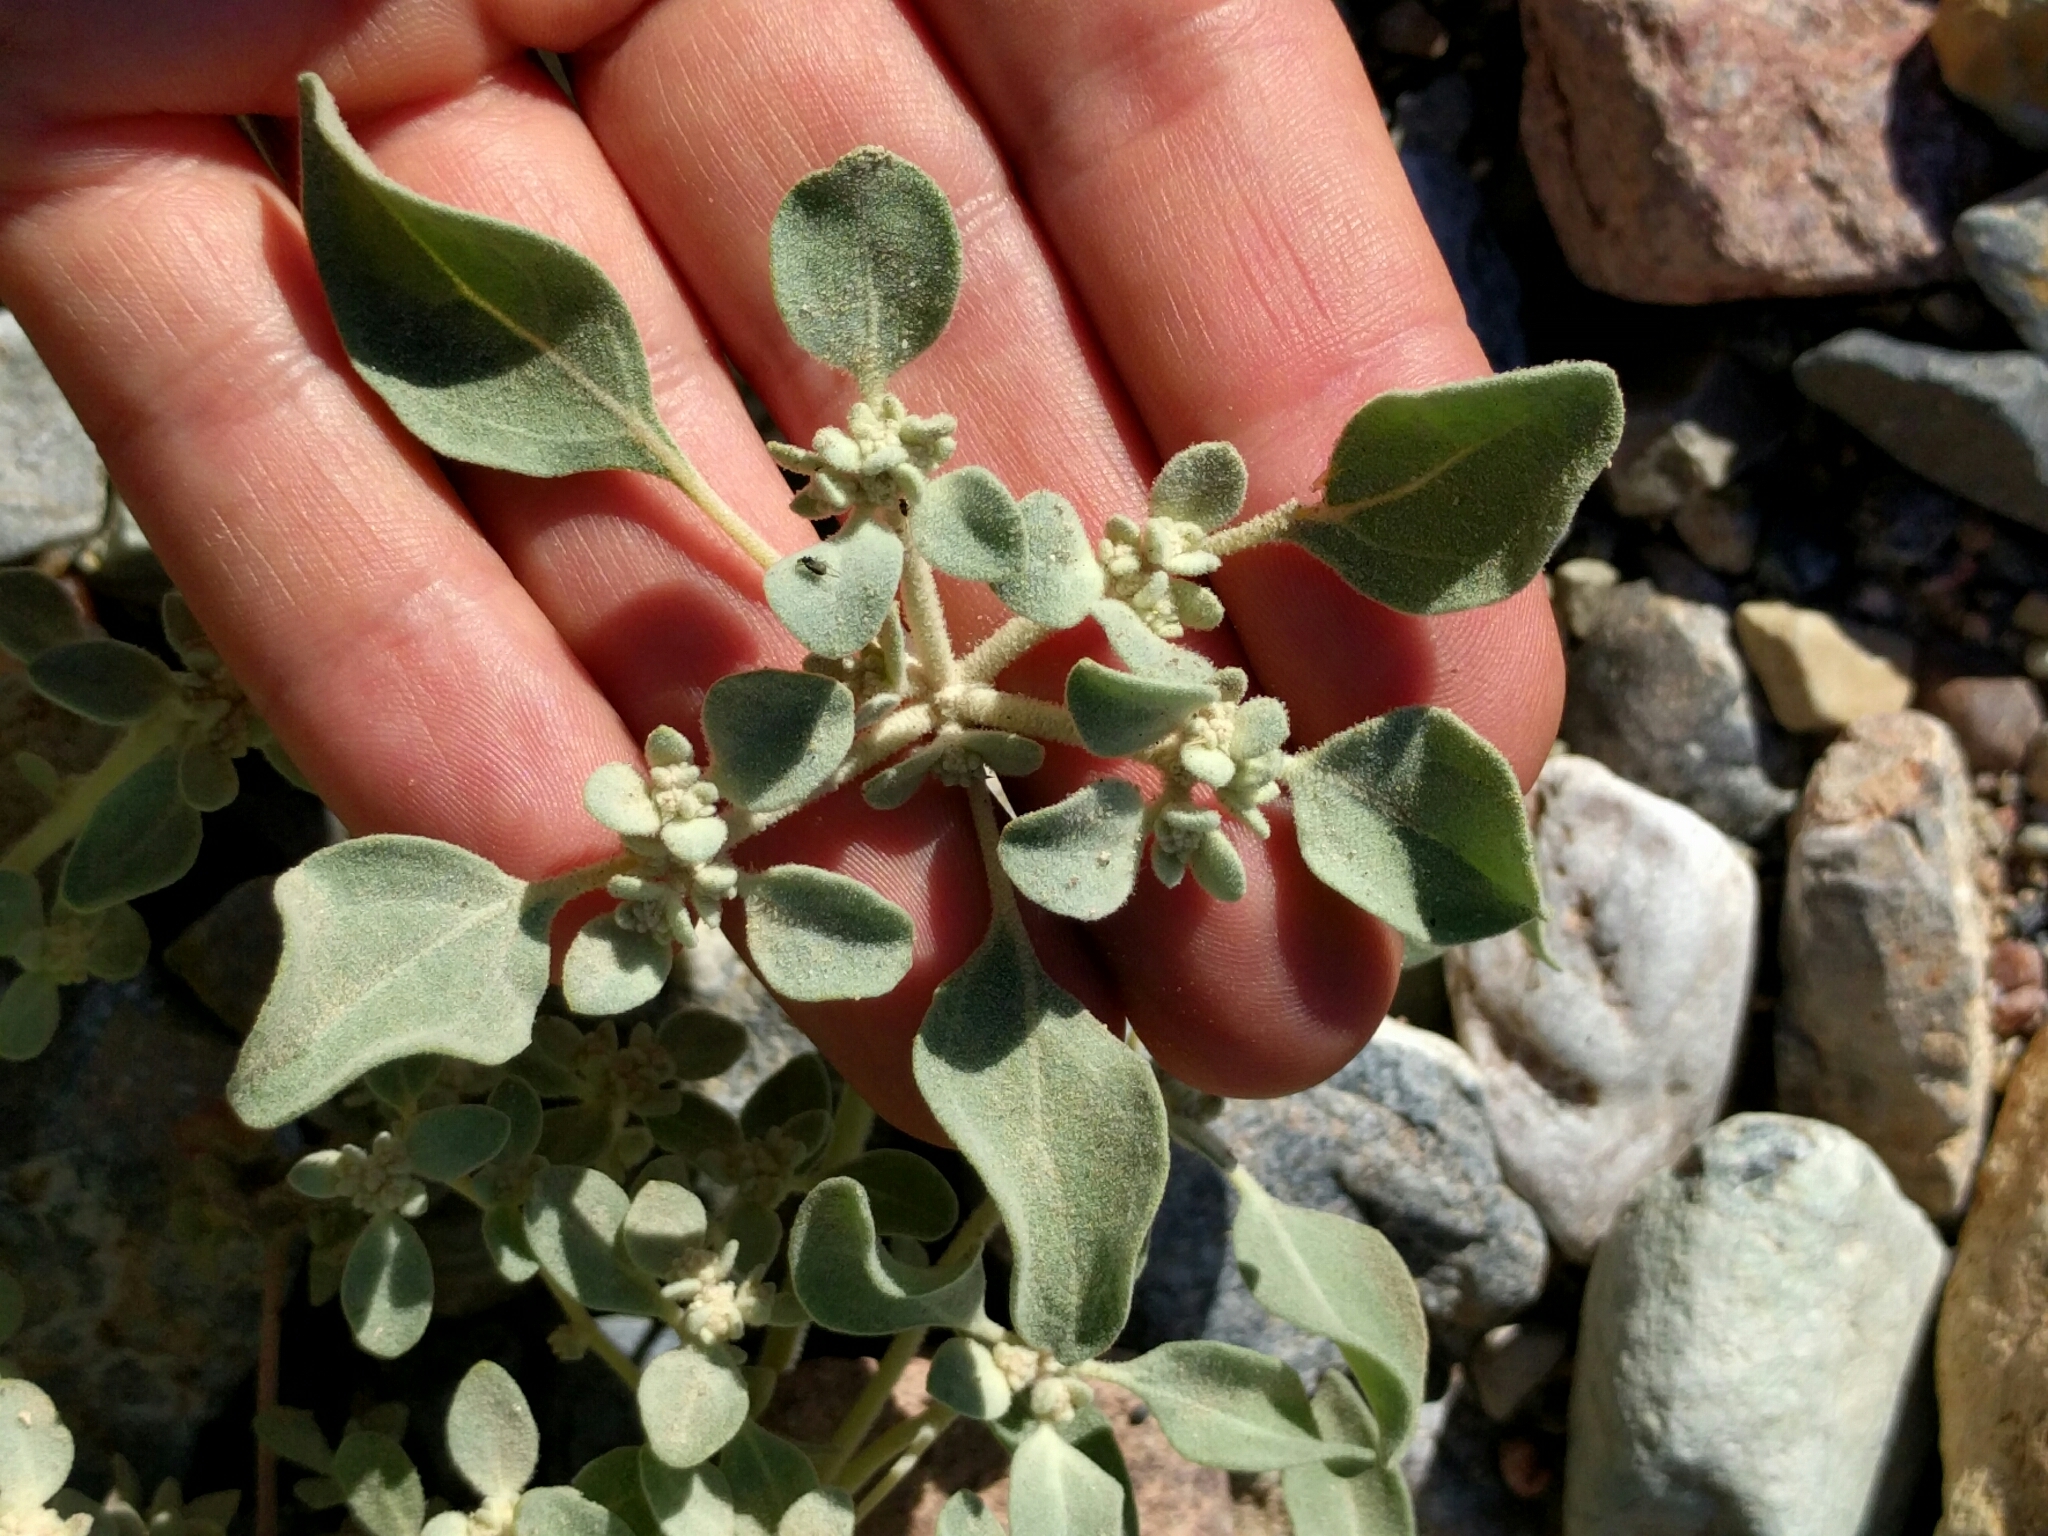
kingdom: Plantae
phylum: Tracheophyta
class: Magnoliopsida
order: Caryophyllales
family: Amaranthaceae
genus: Tidestromia
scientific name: Tidestromia suffruticosa
